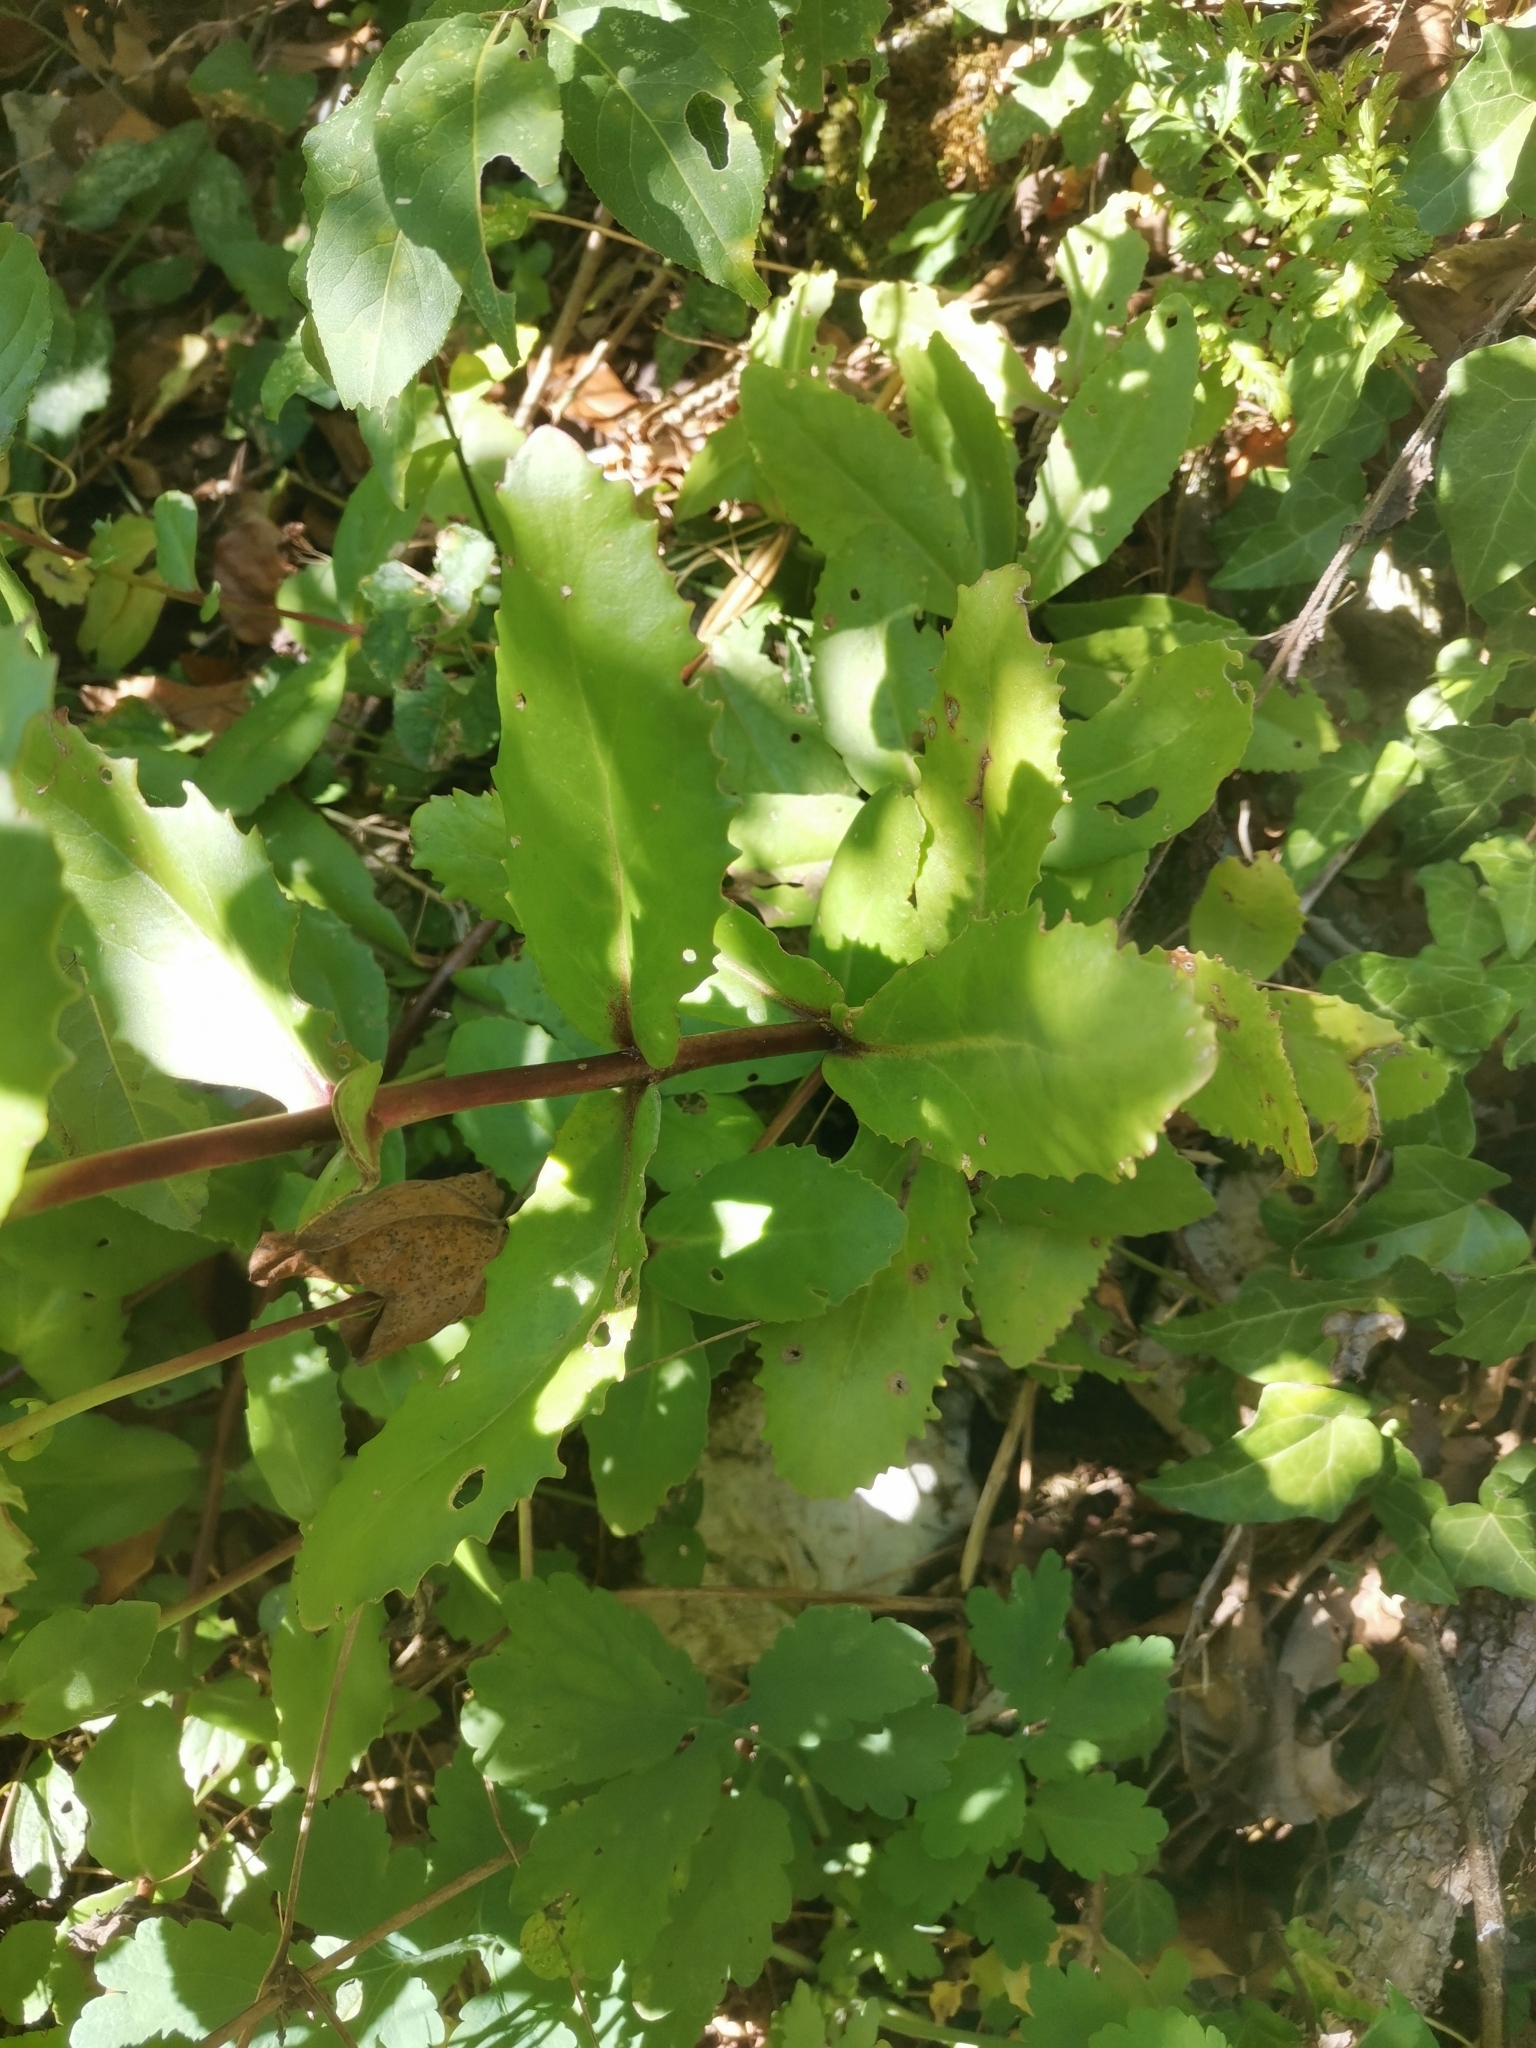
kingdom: Plantae
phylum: Tracheophyta
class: Magnoliopsida
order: Saxifragales
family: Crassulaceae
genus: Hylotelephium
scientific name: Hylotelephium maximum
